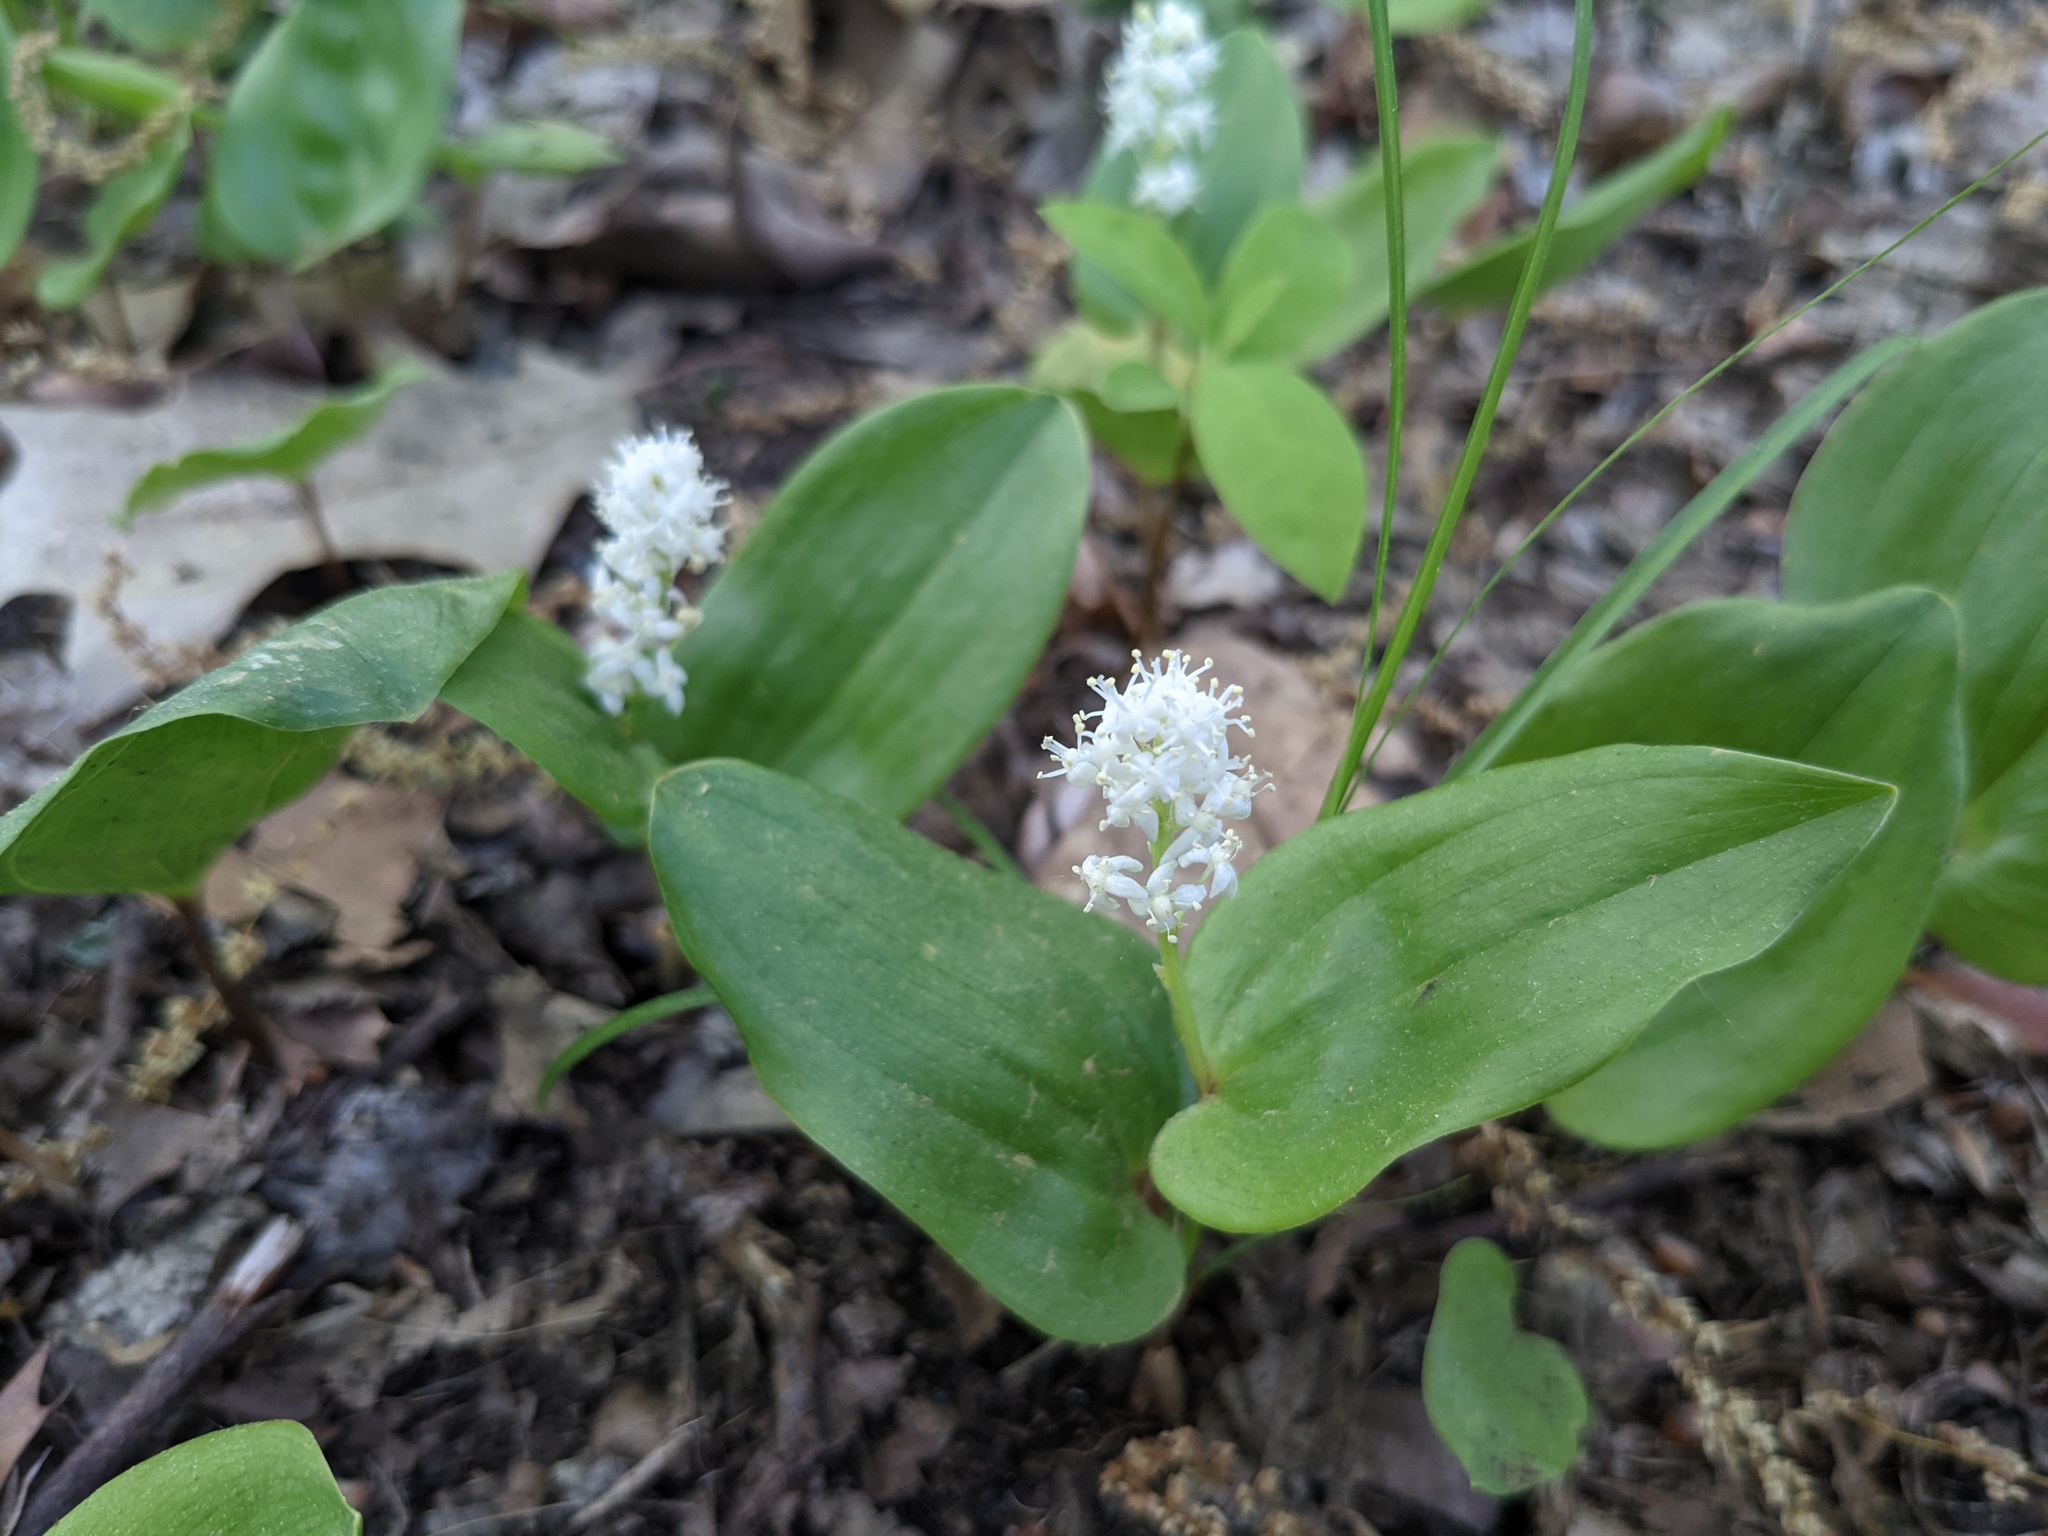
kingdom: Plantae
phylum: Tracheophyta
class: Liliopsida
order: Asparagales
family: Asparagaceae
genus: Maianthemum
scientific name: Maianthemum canadense
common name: False lily-of-the-valley
